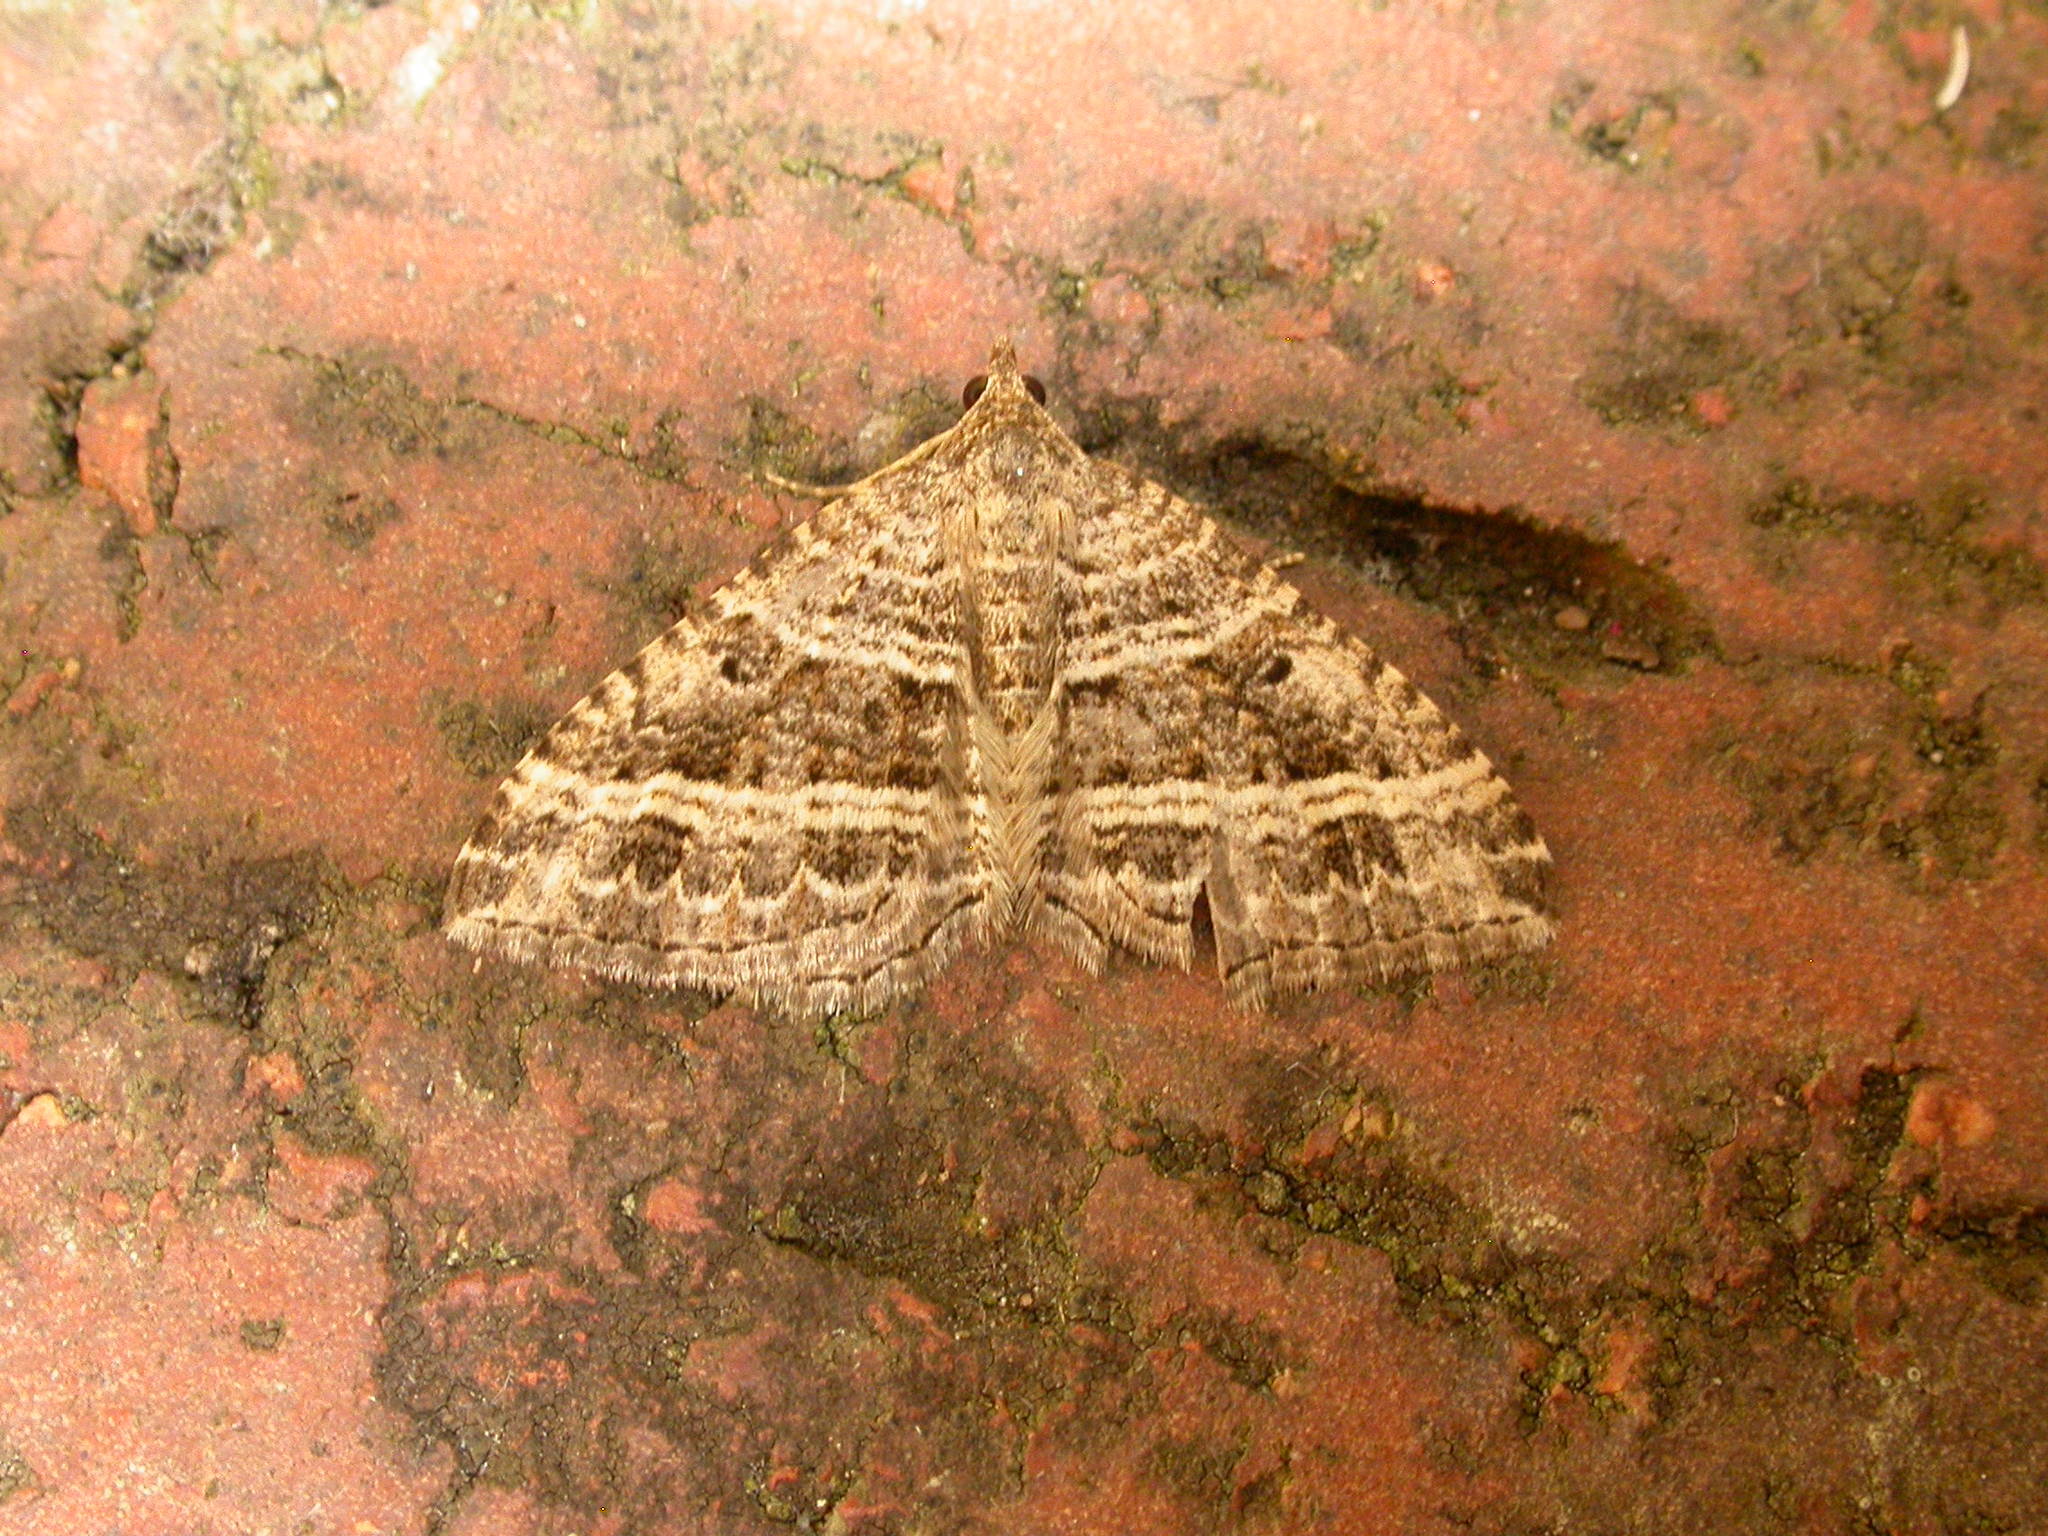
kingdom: Animalia
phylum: Arthropoda
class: Insecta
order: Lepidoptera
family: Geometridae
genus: Chrysolarentia
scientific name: Chrysolarentia subrectaria
